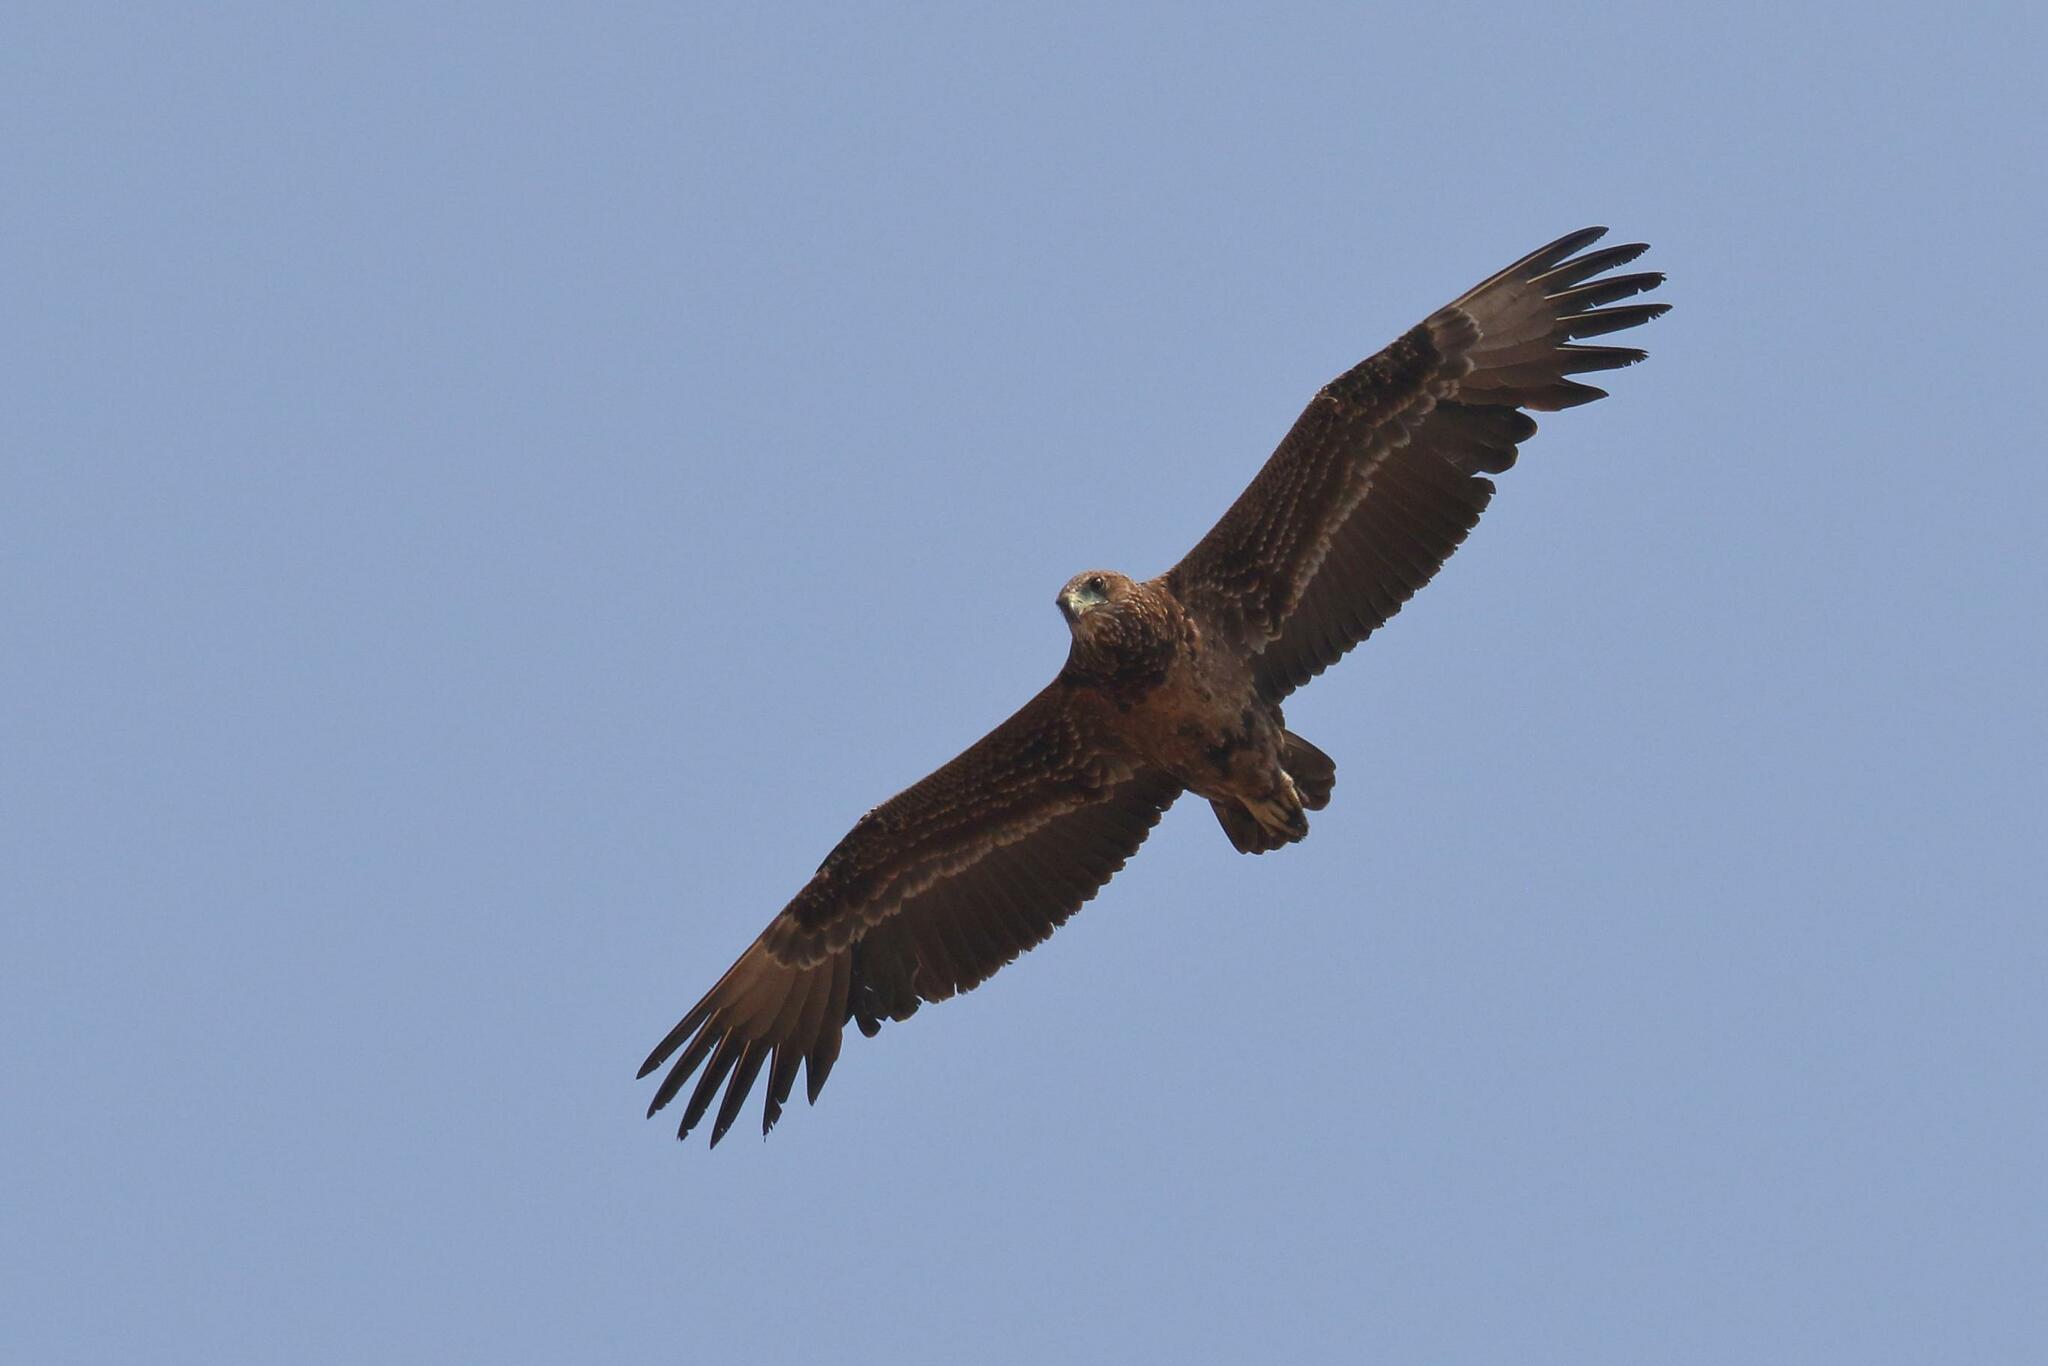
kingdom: Animalia
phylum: Chordata
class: Aves
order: Accipitriformes
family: Accipitridae
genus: Terathopius
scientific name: Terathopius ecaudatus
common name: Bateleur
